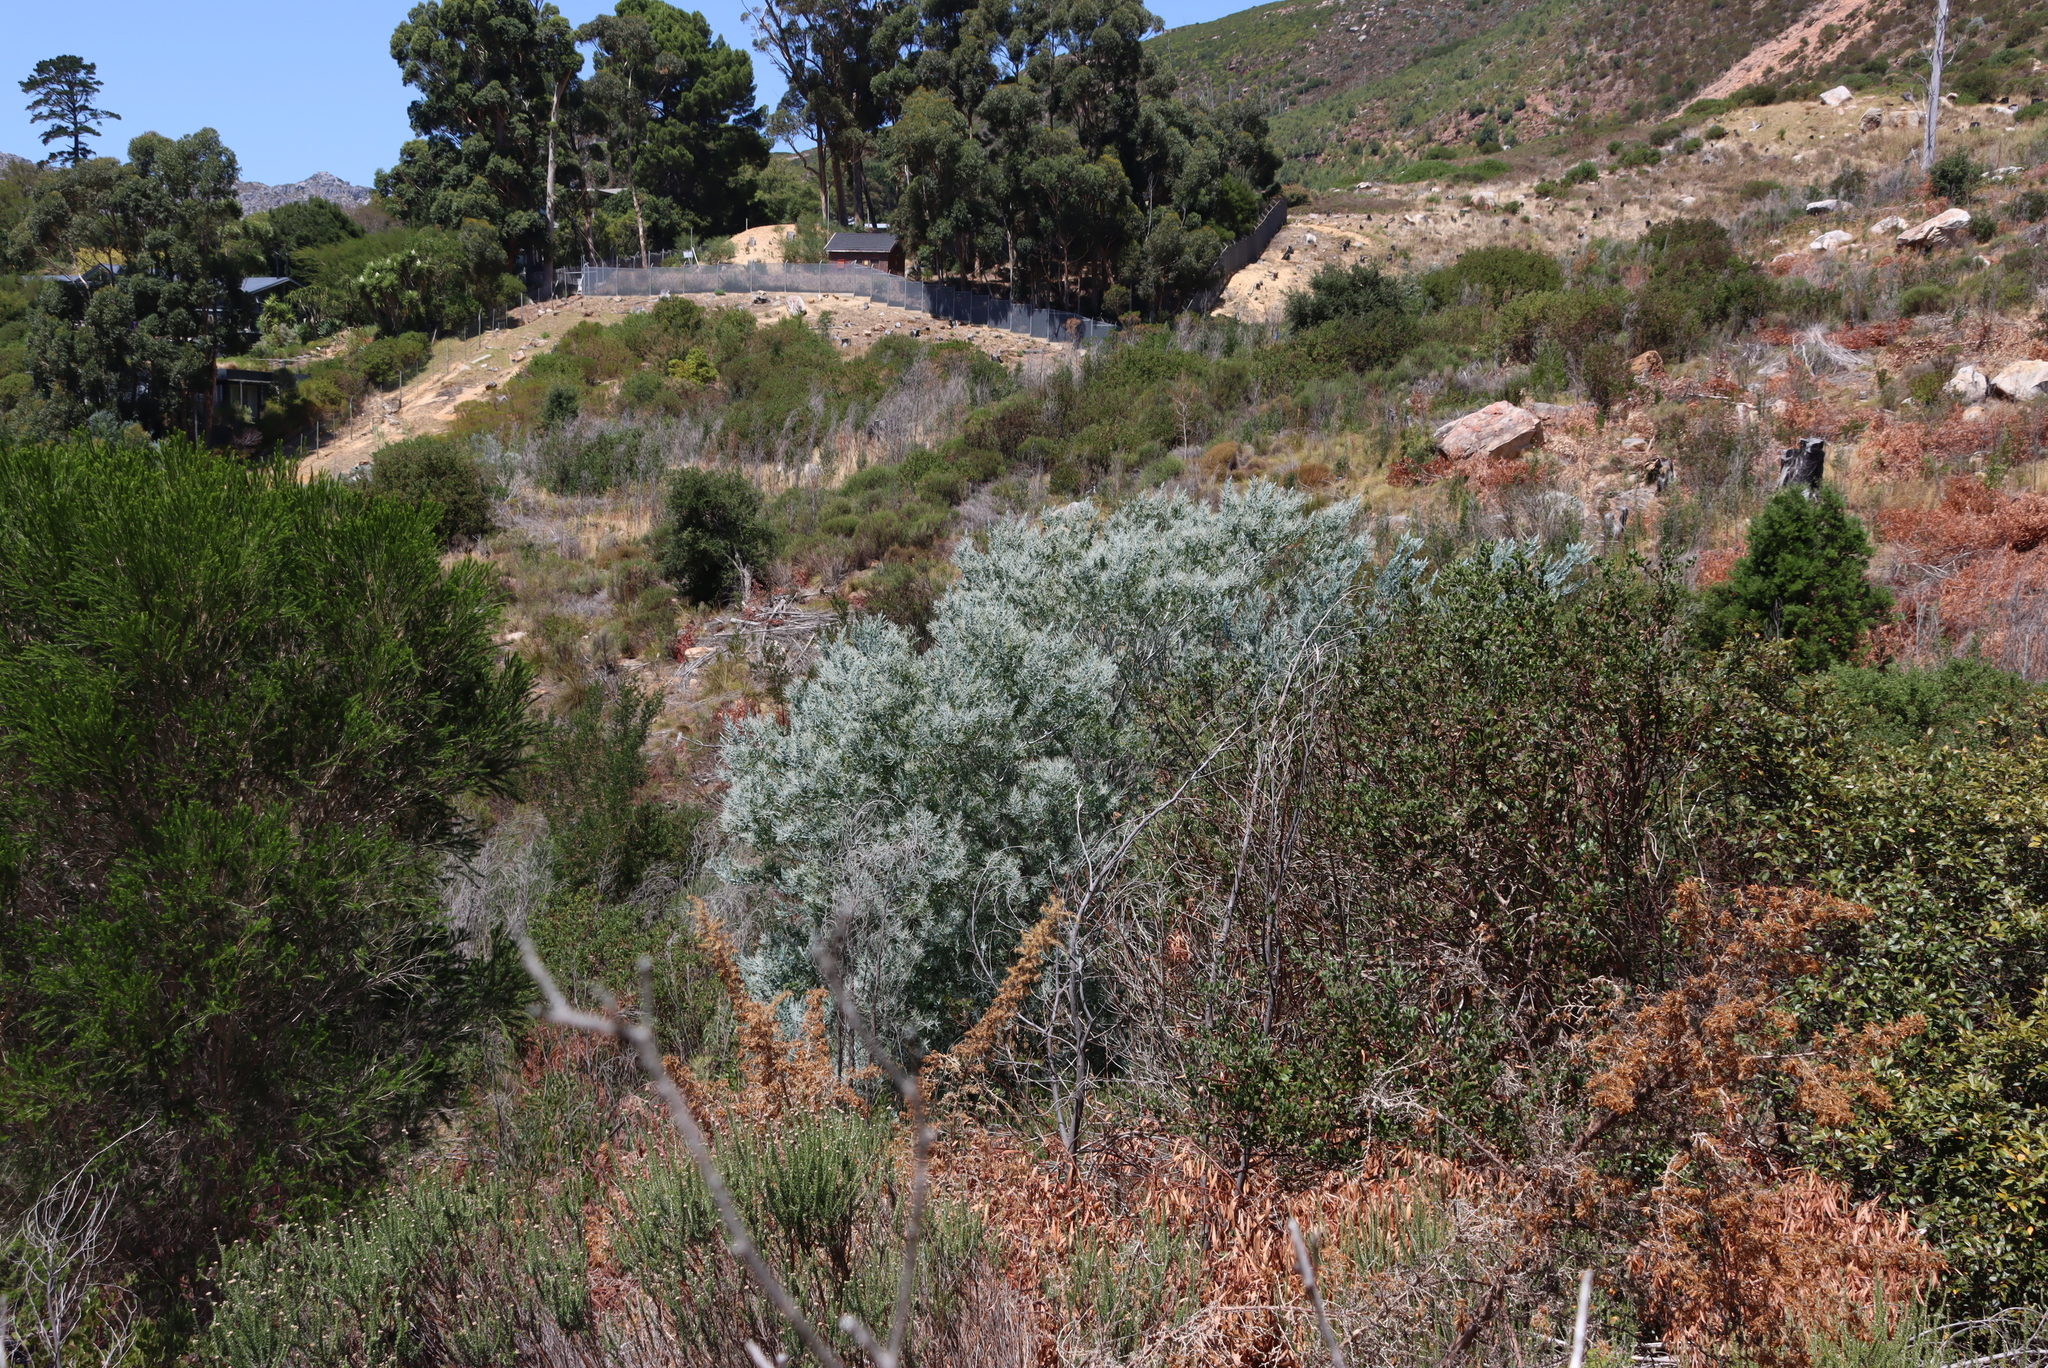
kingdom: Plantae
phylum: Tracheophyta
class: Magnoliopsida
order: Fabales
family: Fabaceae
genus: Acacia
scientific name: Acacia podalyriifolia
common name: Pearl wattle
